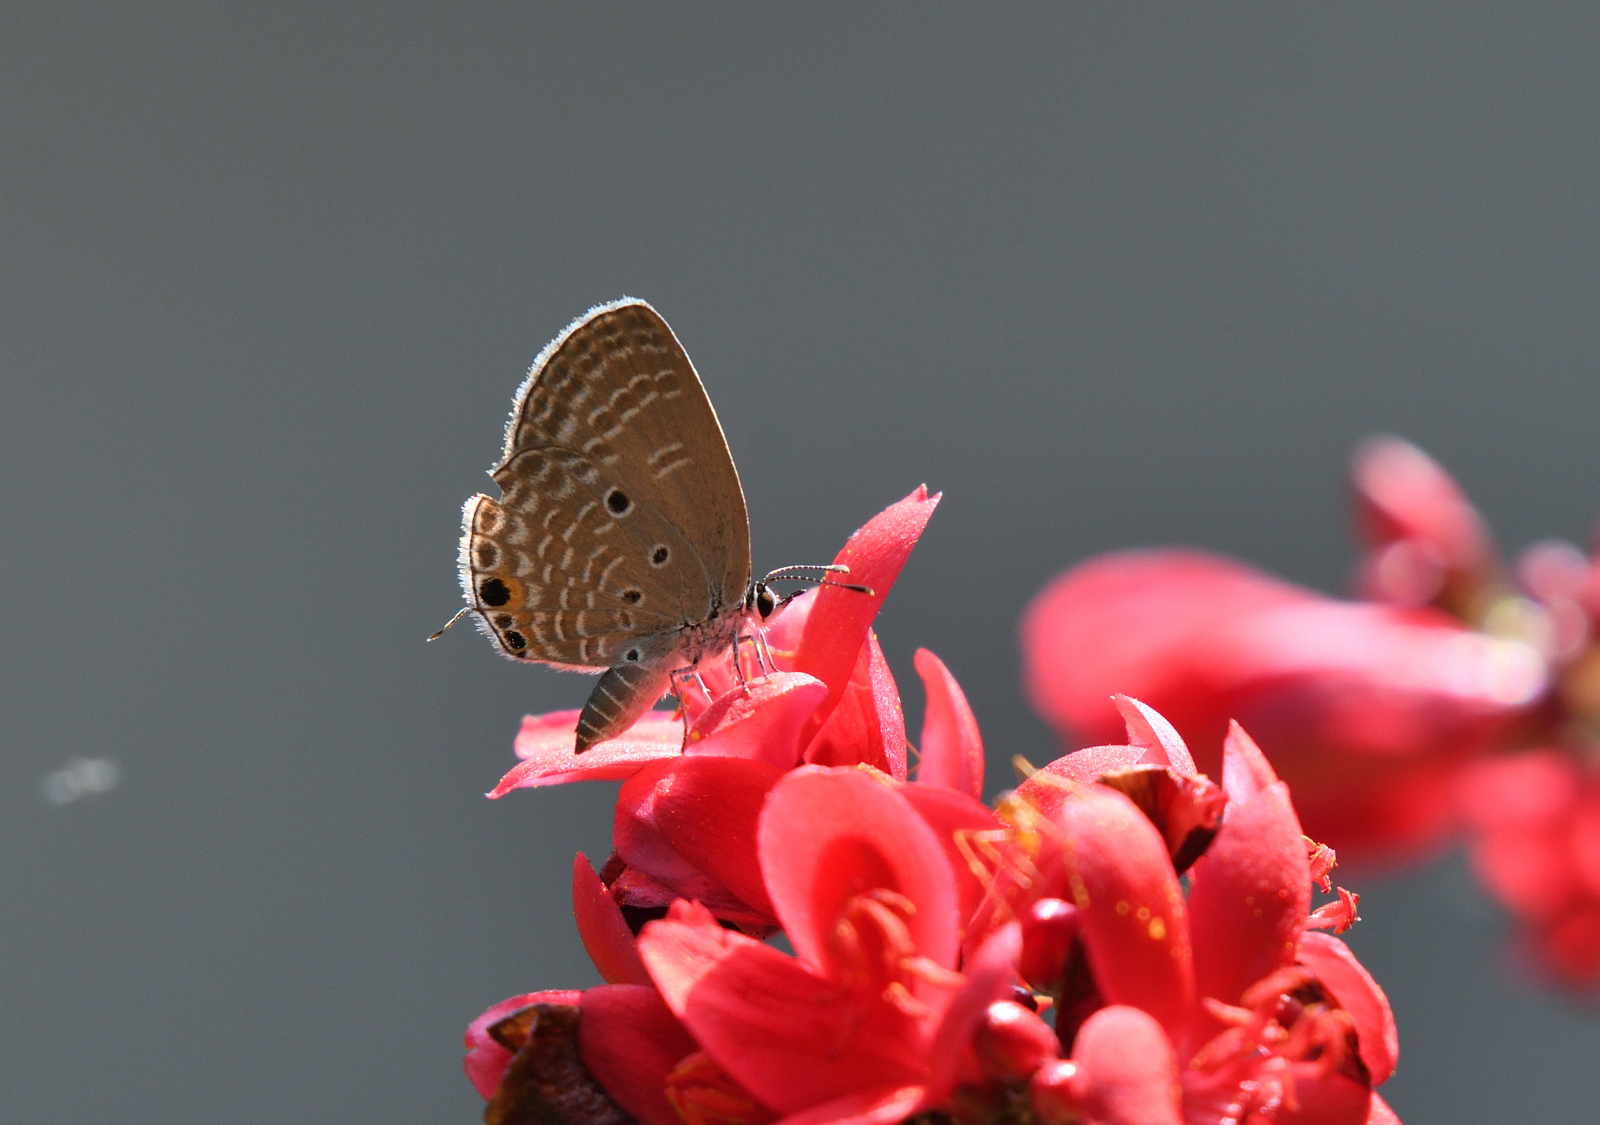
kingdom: Animalia
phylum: Arthropoda
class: Insecta
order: Lepidoptera
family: Lycaenidae
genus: Luthrodes
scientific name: Luthrodes pandava
